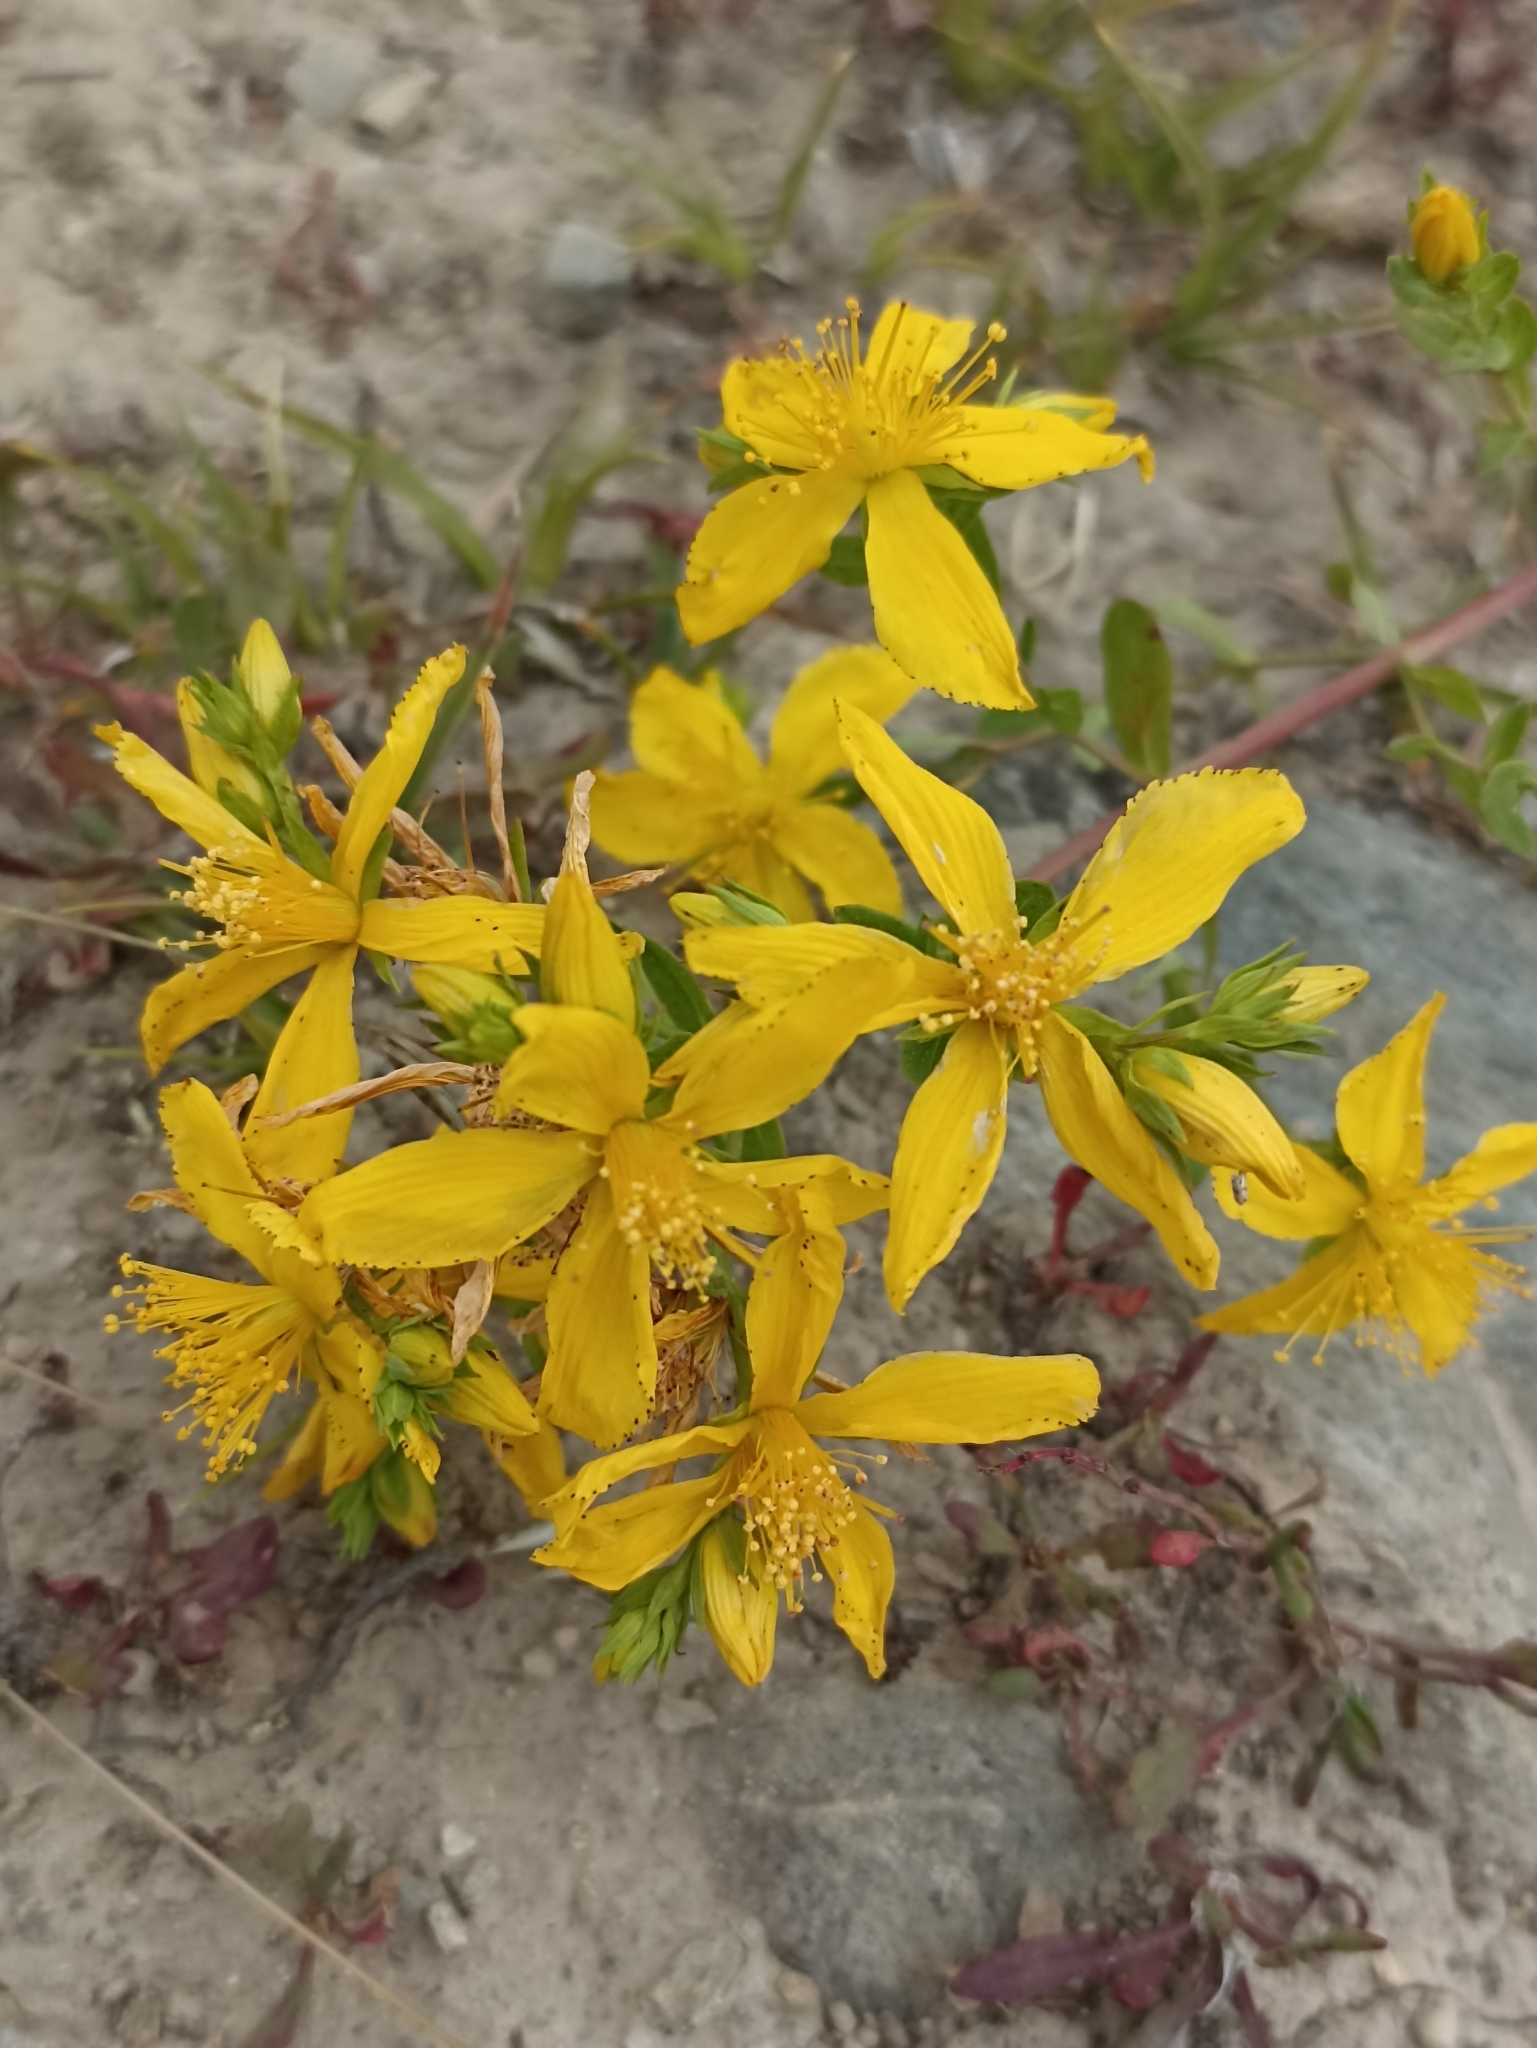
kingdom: Plantae
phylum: Tracheophyta
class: Magnoliopsida
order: Malpighiales
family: Hypericaceae
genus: Hypericum
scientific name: Hypericum perforatum
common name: Common st. johnswort
